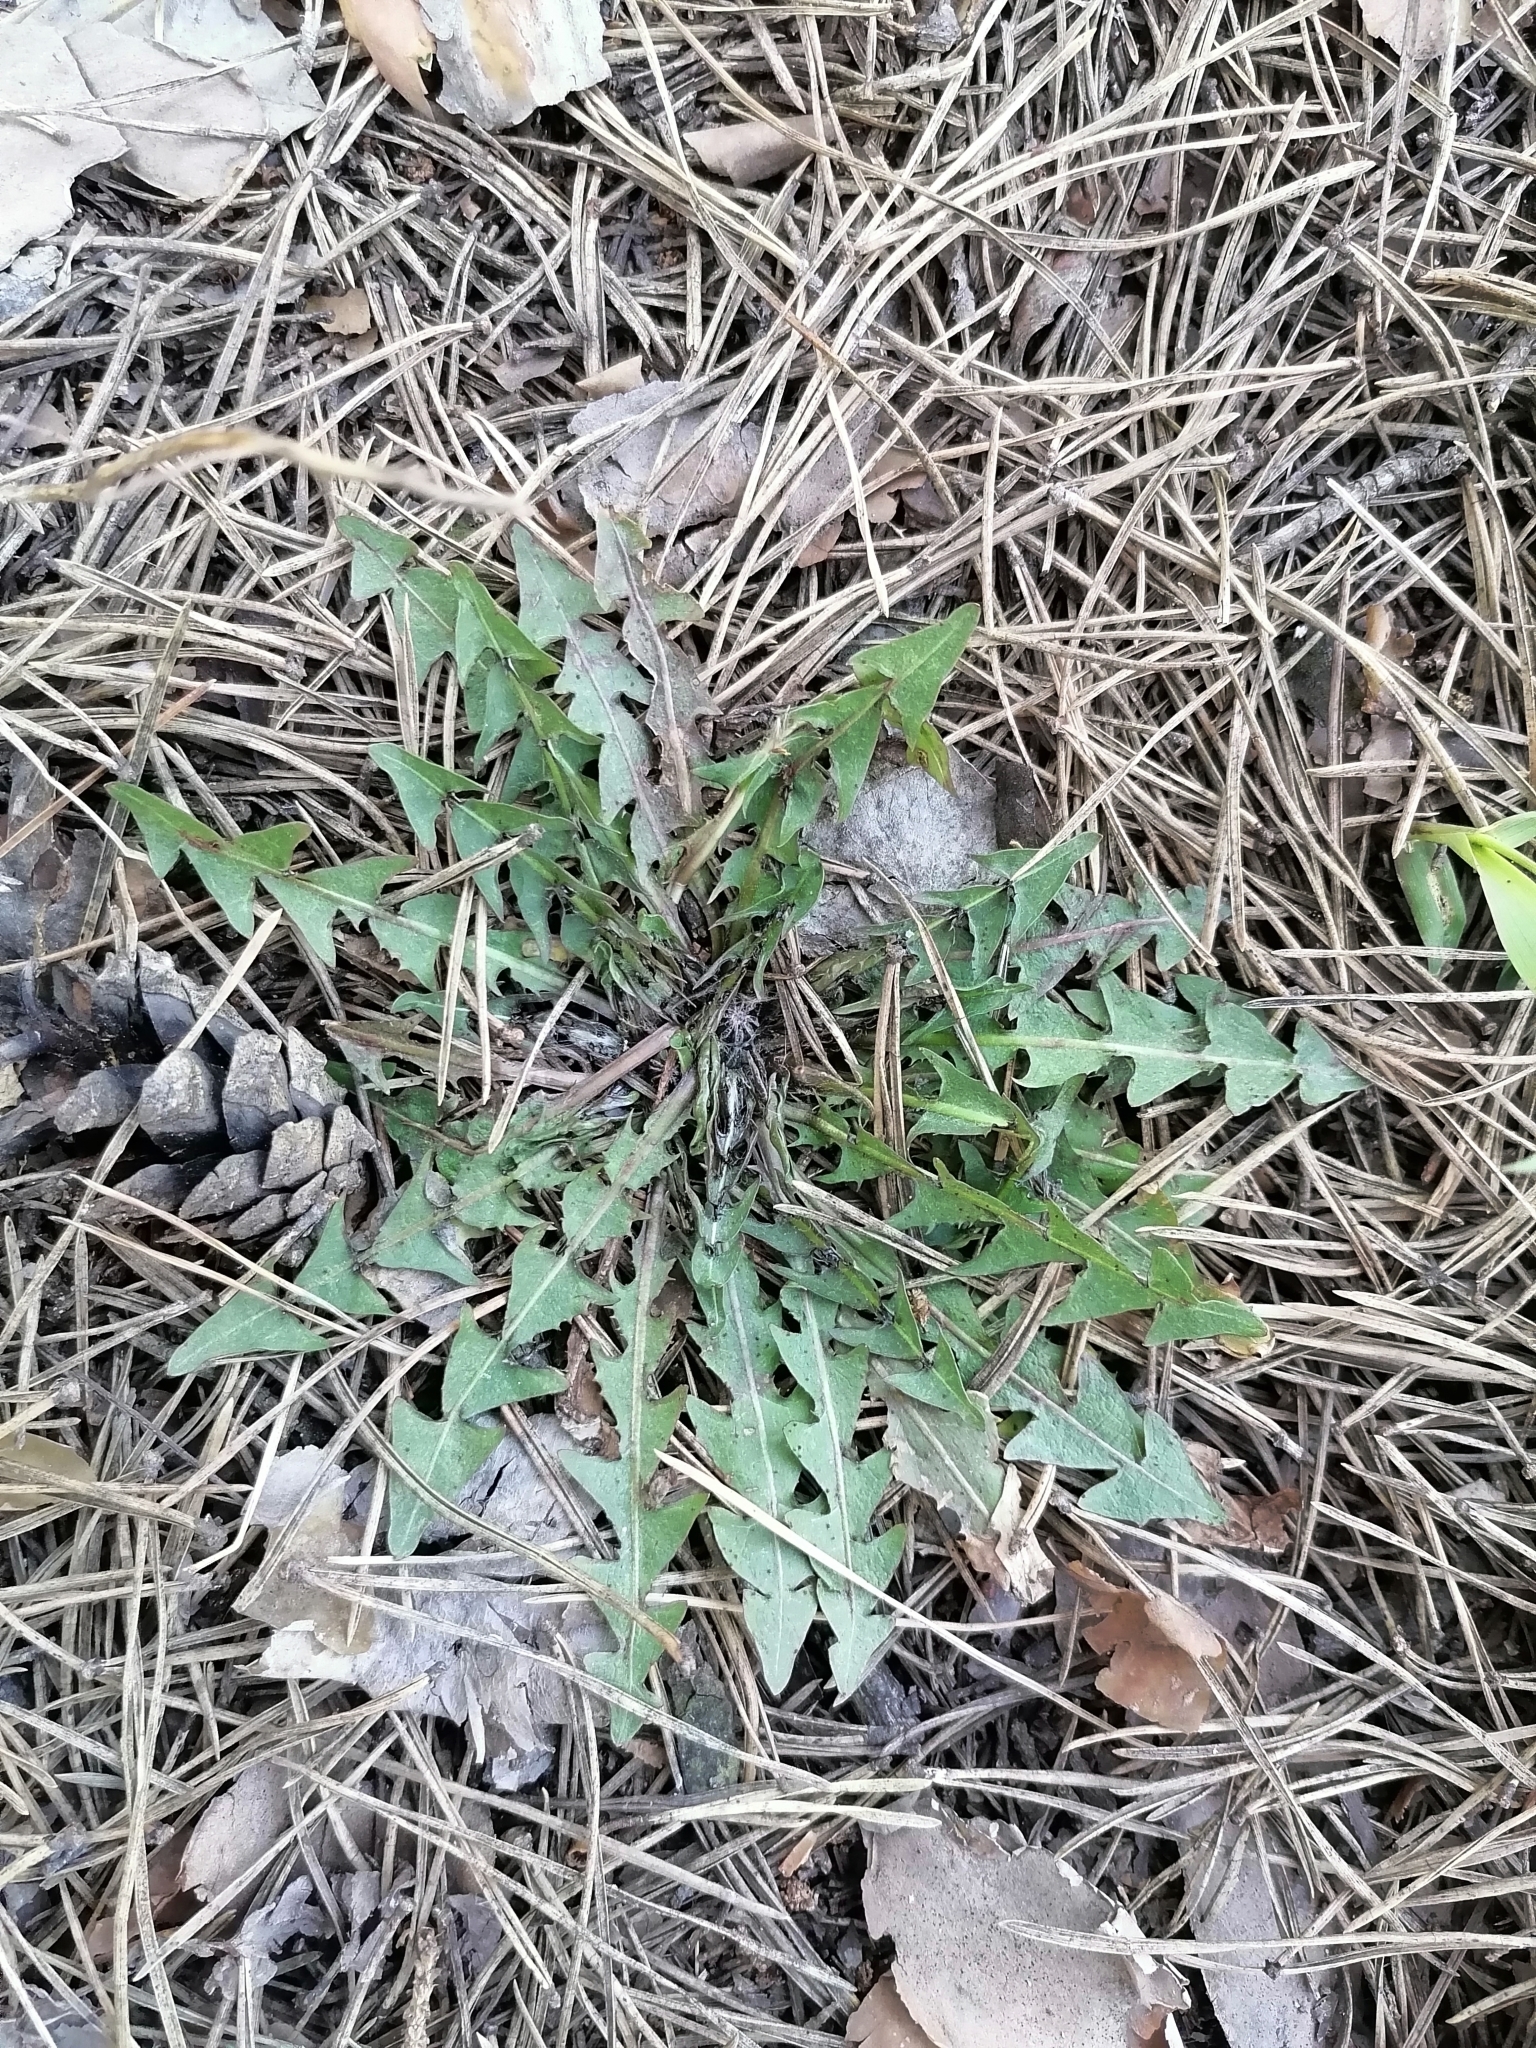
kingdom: Plantae
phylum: Tracheophyta
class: Magnoliopsida
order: Asterales
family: Asteraceae
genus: Taraxacum
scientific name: Taraxacum officinale
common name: Common dandelion
